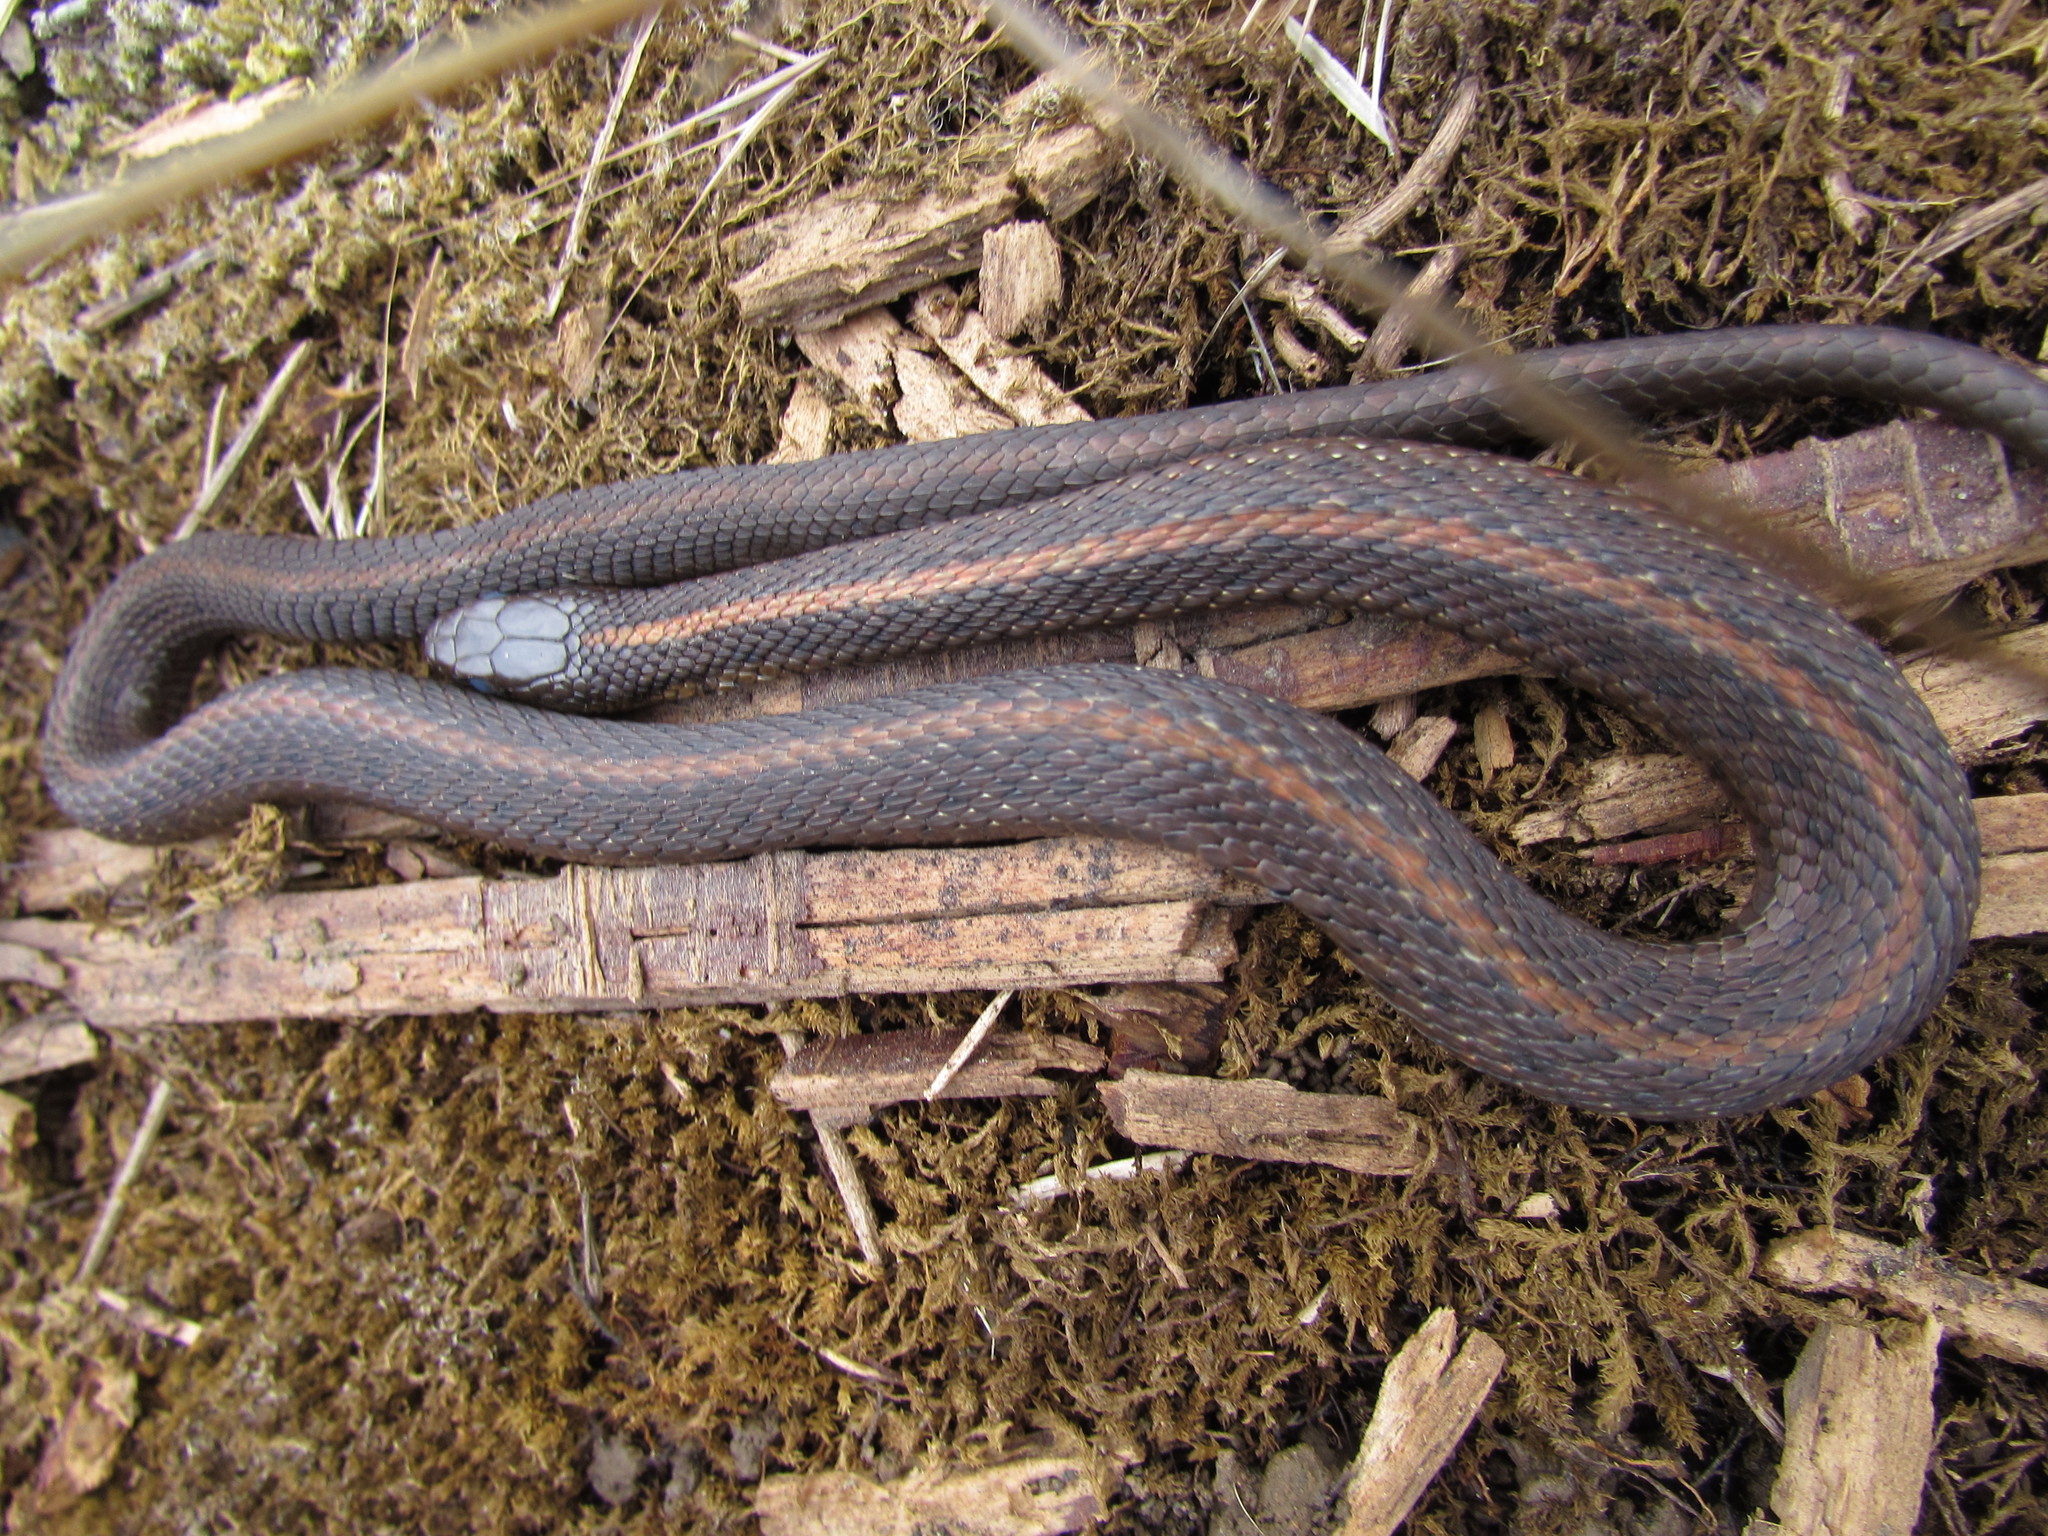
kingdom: Animalia
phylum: Chordata
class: Squamata
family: Colubridae
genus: Thamnophis
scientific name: Thamnophis ordinoides
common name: Northwestern garter snake
